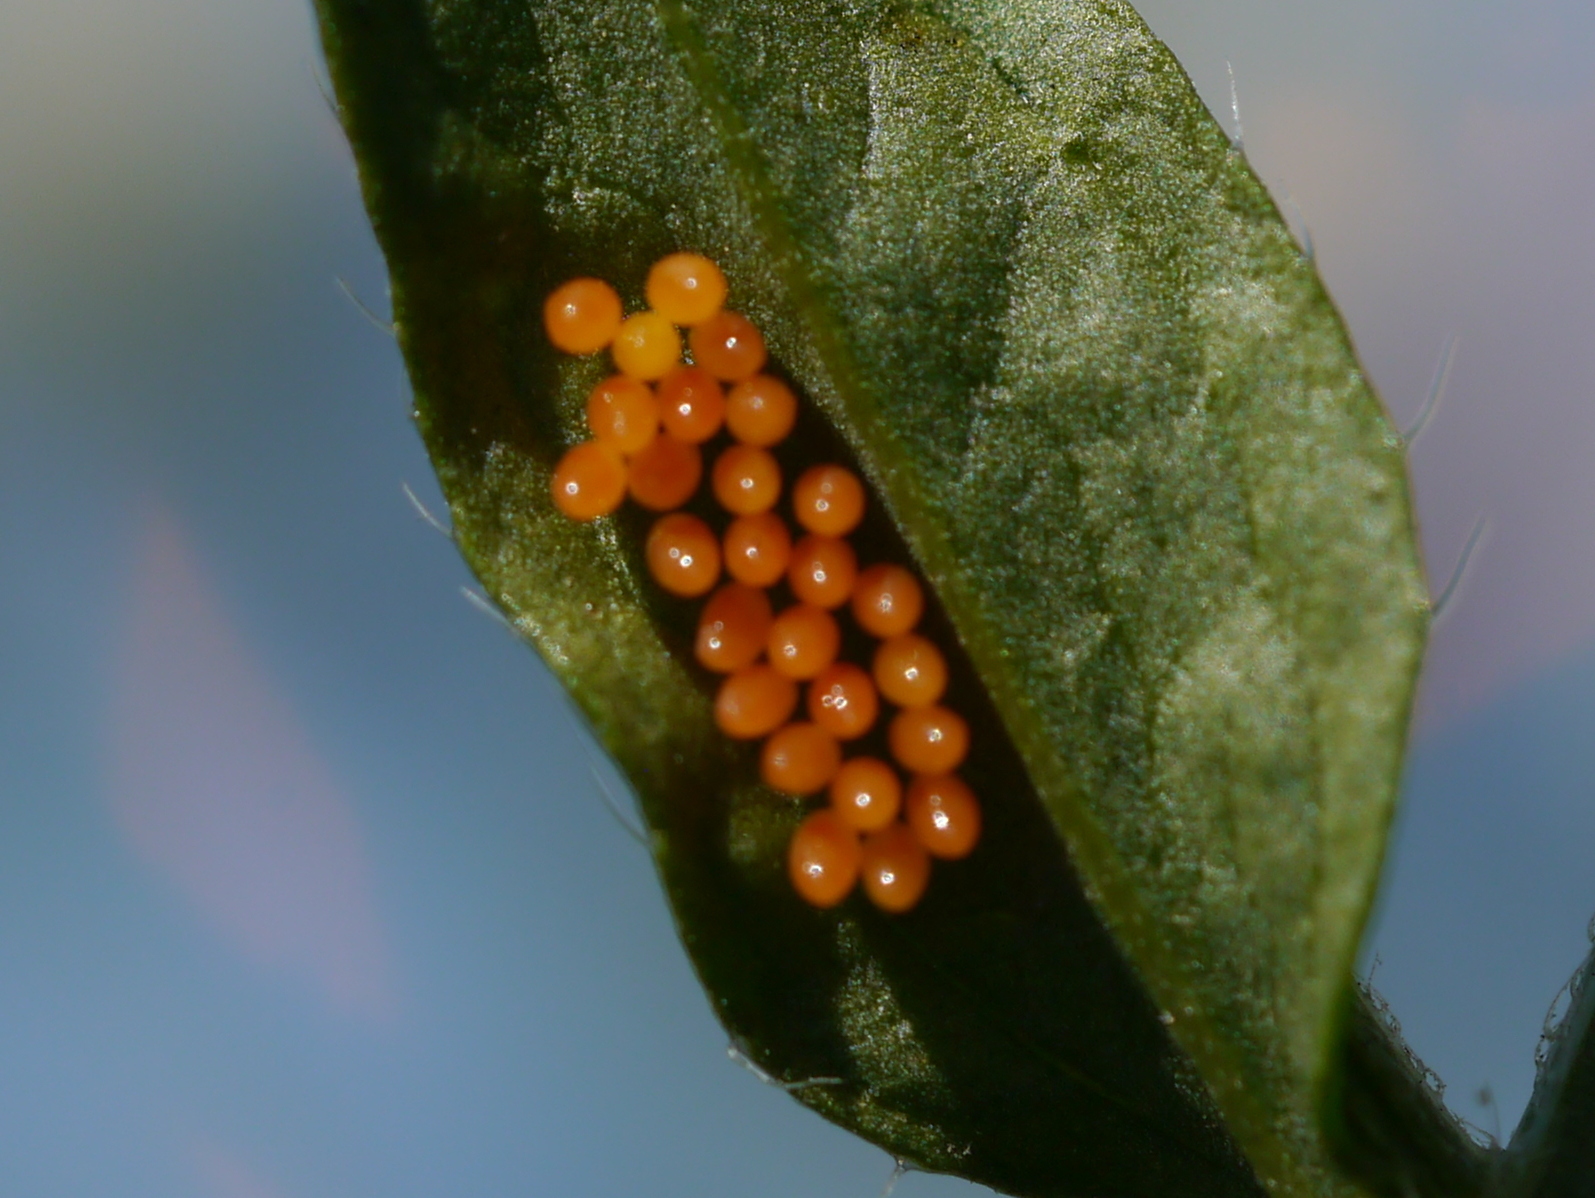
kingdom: Animalia
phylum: Arthropoda
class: Insecta
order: Coleoptera
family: Coccinellidae
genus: Harmonia
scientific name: Harmonia axyridis
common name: Harlequin ladybird
